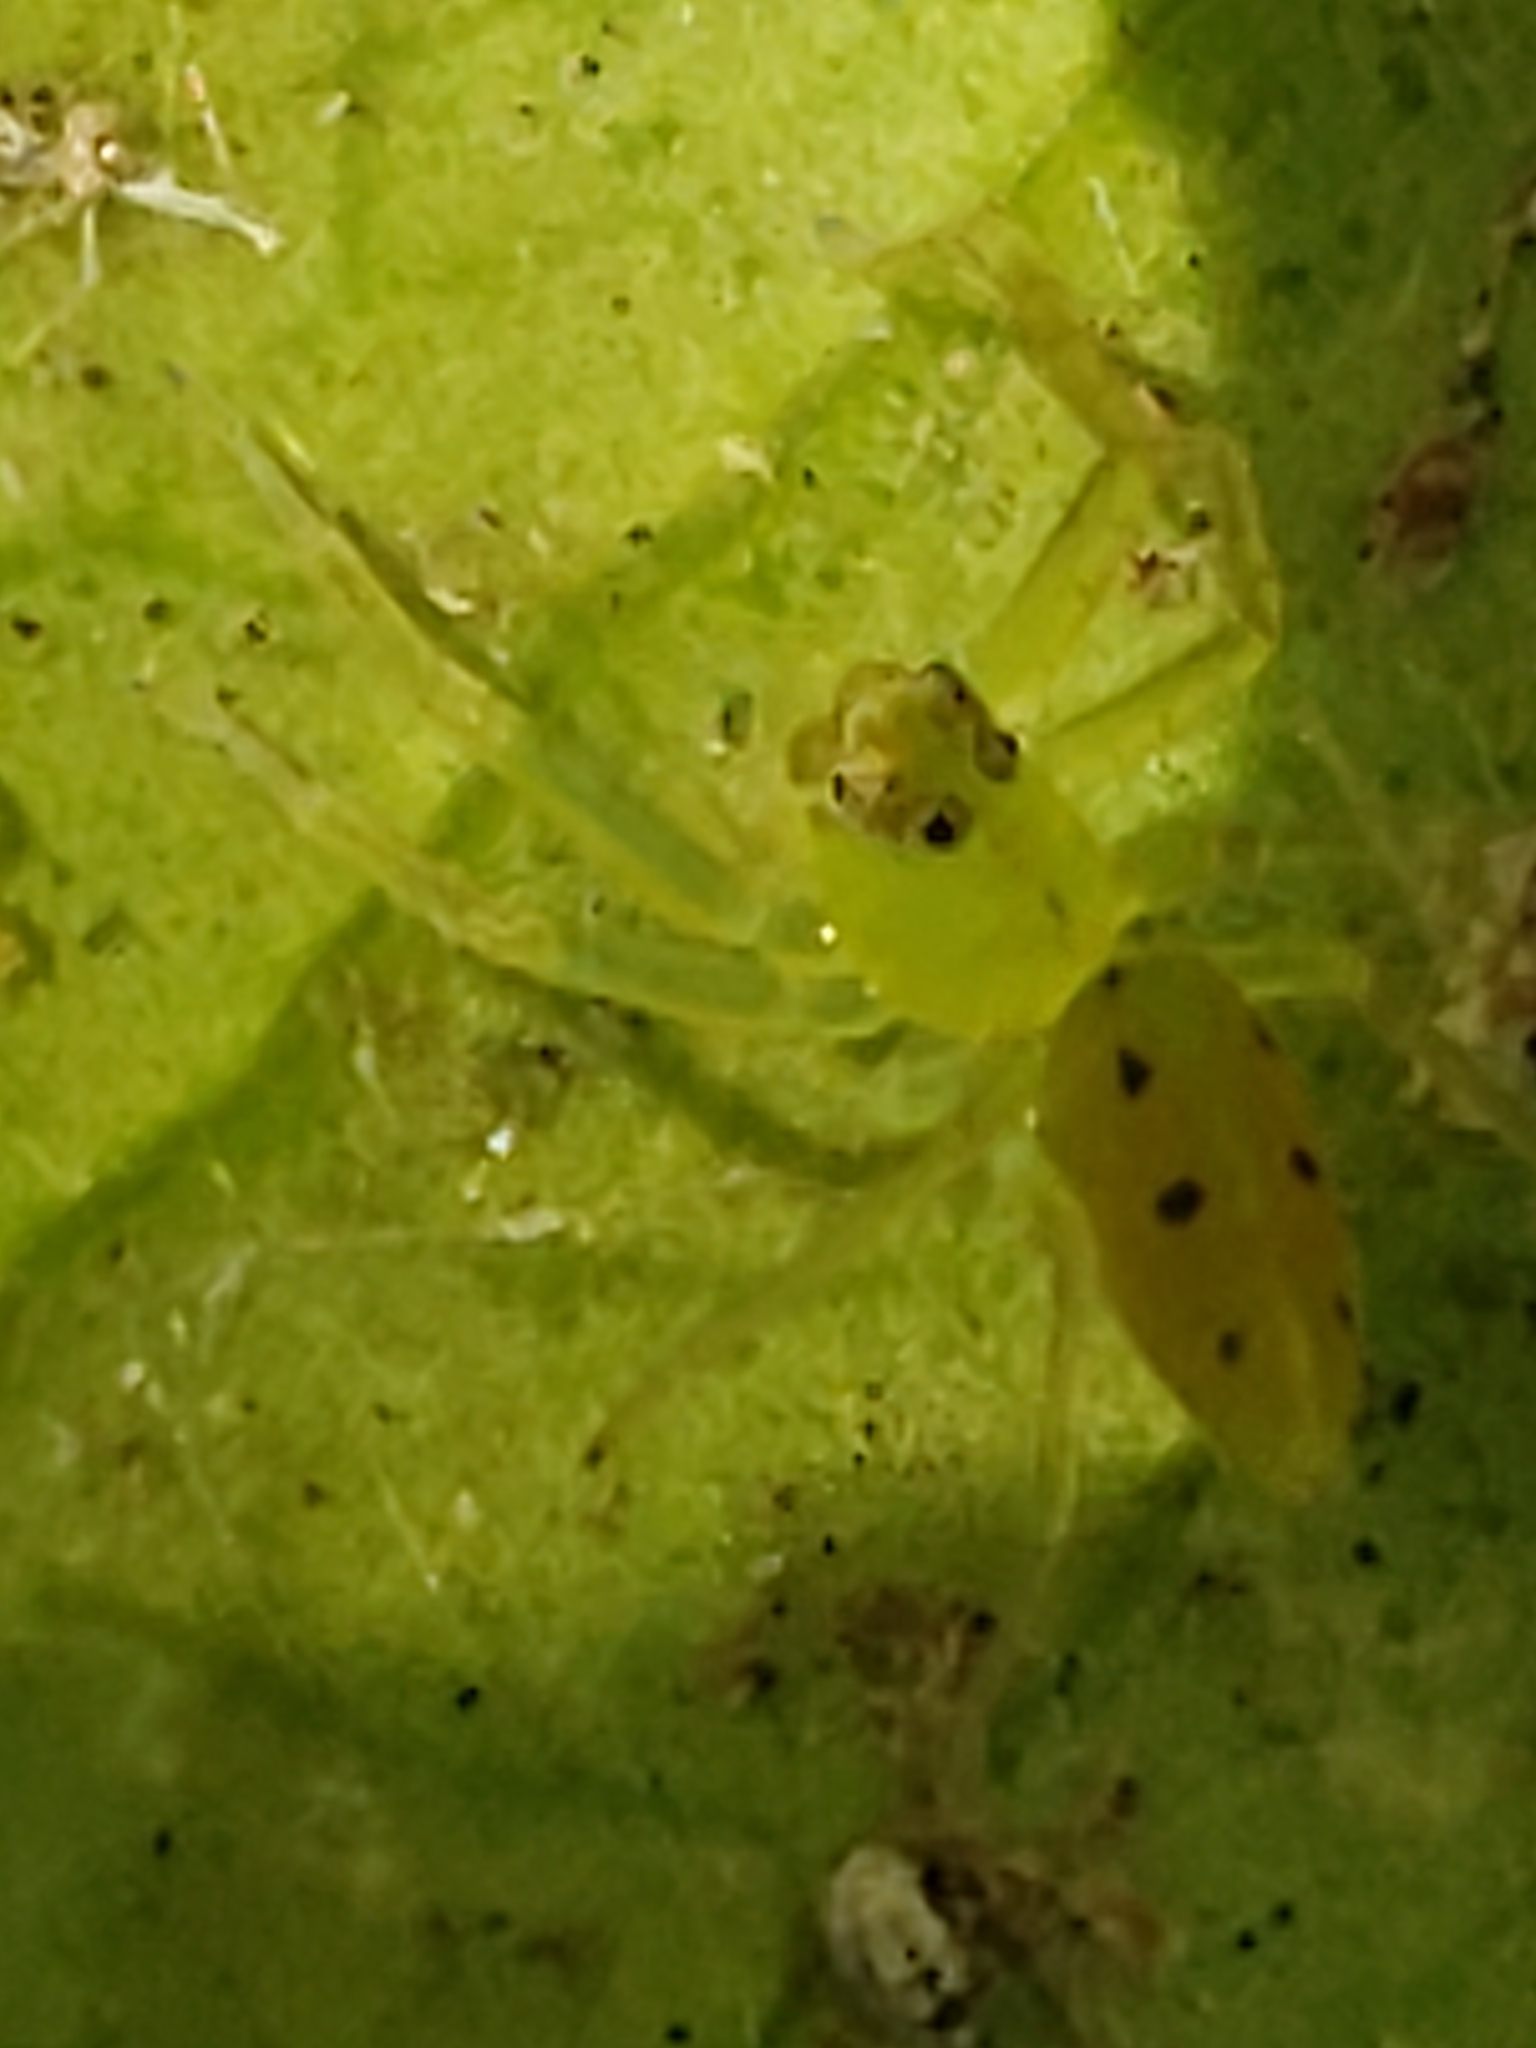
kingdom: Animalia
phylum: Arthropoda
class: Arachnida
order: Araneae
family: Salticidae
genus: Lyssomanes
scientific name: Lyssomanes viridis
